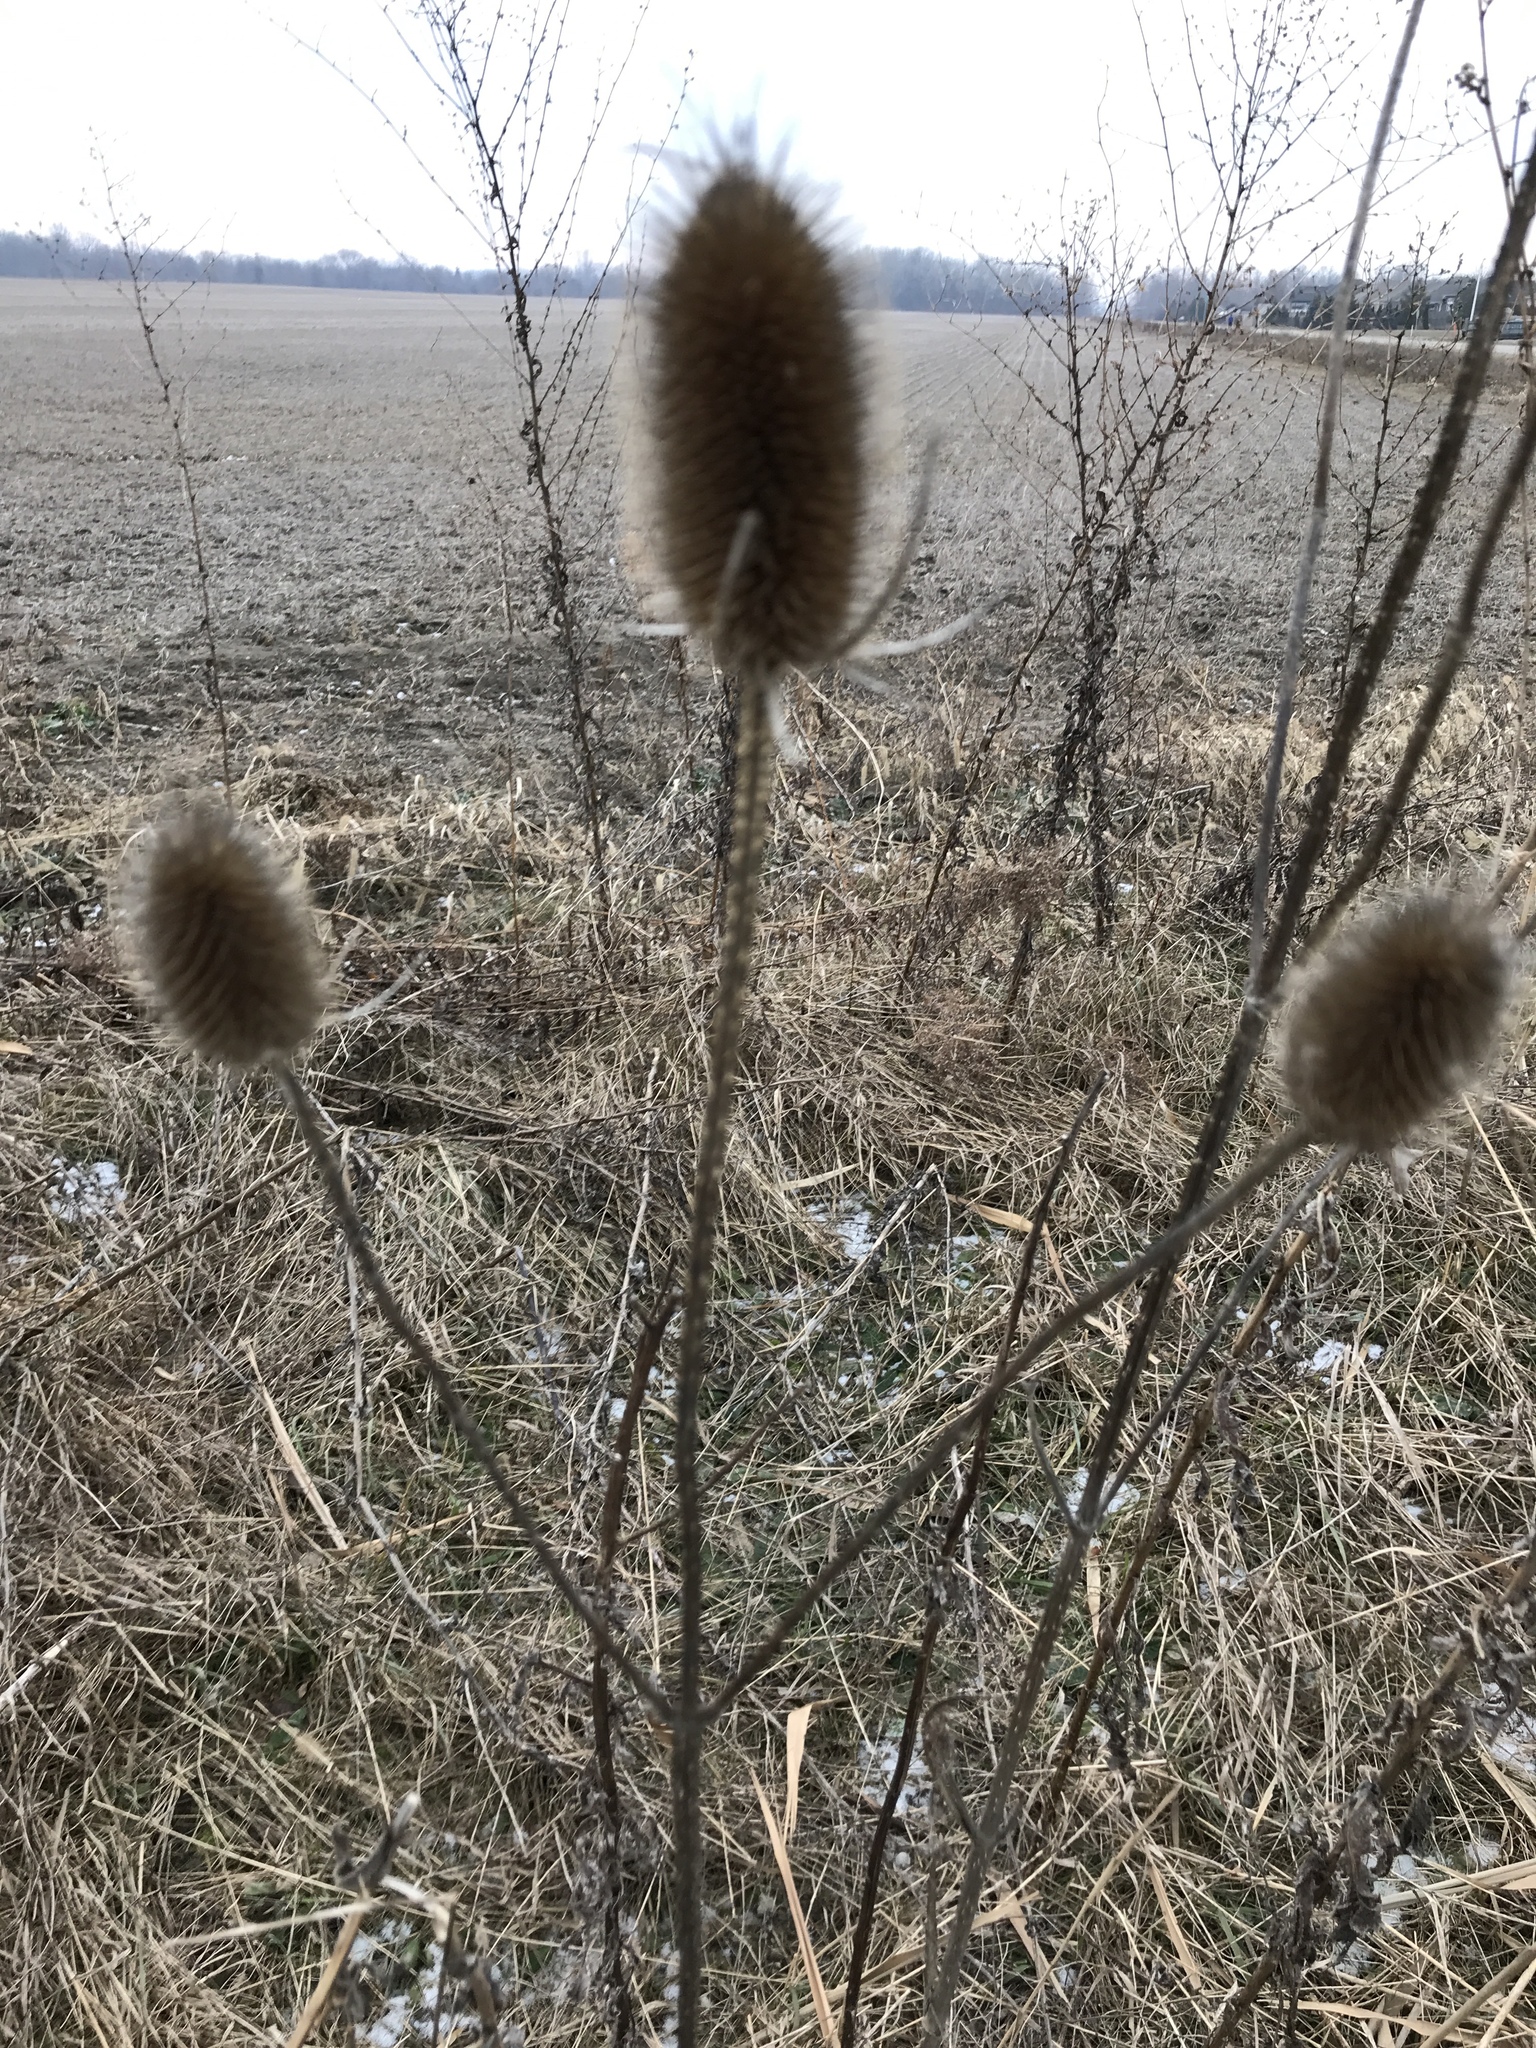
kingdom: Plantae
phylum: Tracheophyta
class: Magnoliopsida
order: Dipsacales
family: Caprifoliaceae
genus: Dipsacus
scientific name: Dipsacus fullonum
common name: Teasel
